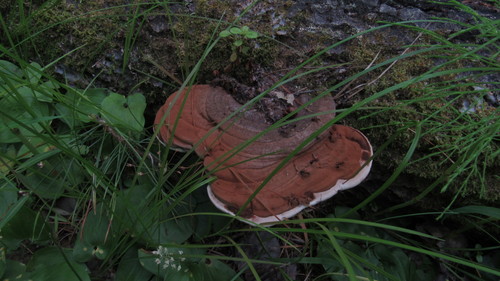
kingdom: Fungi
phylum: Basidiomycota
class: Agaricomycetes
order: Polyporales
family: Polyporaceae
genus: Ganoderma
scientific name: Ganoderma applanatum
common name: Artist's bracket
